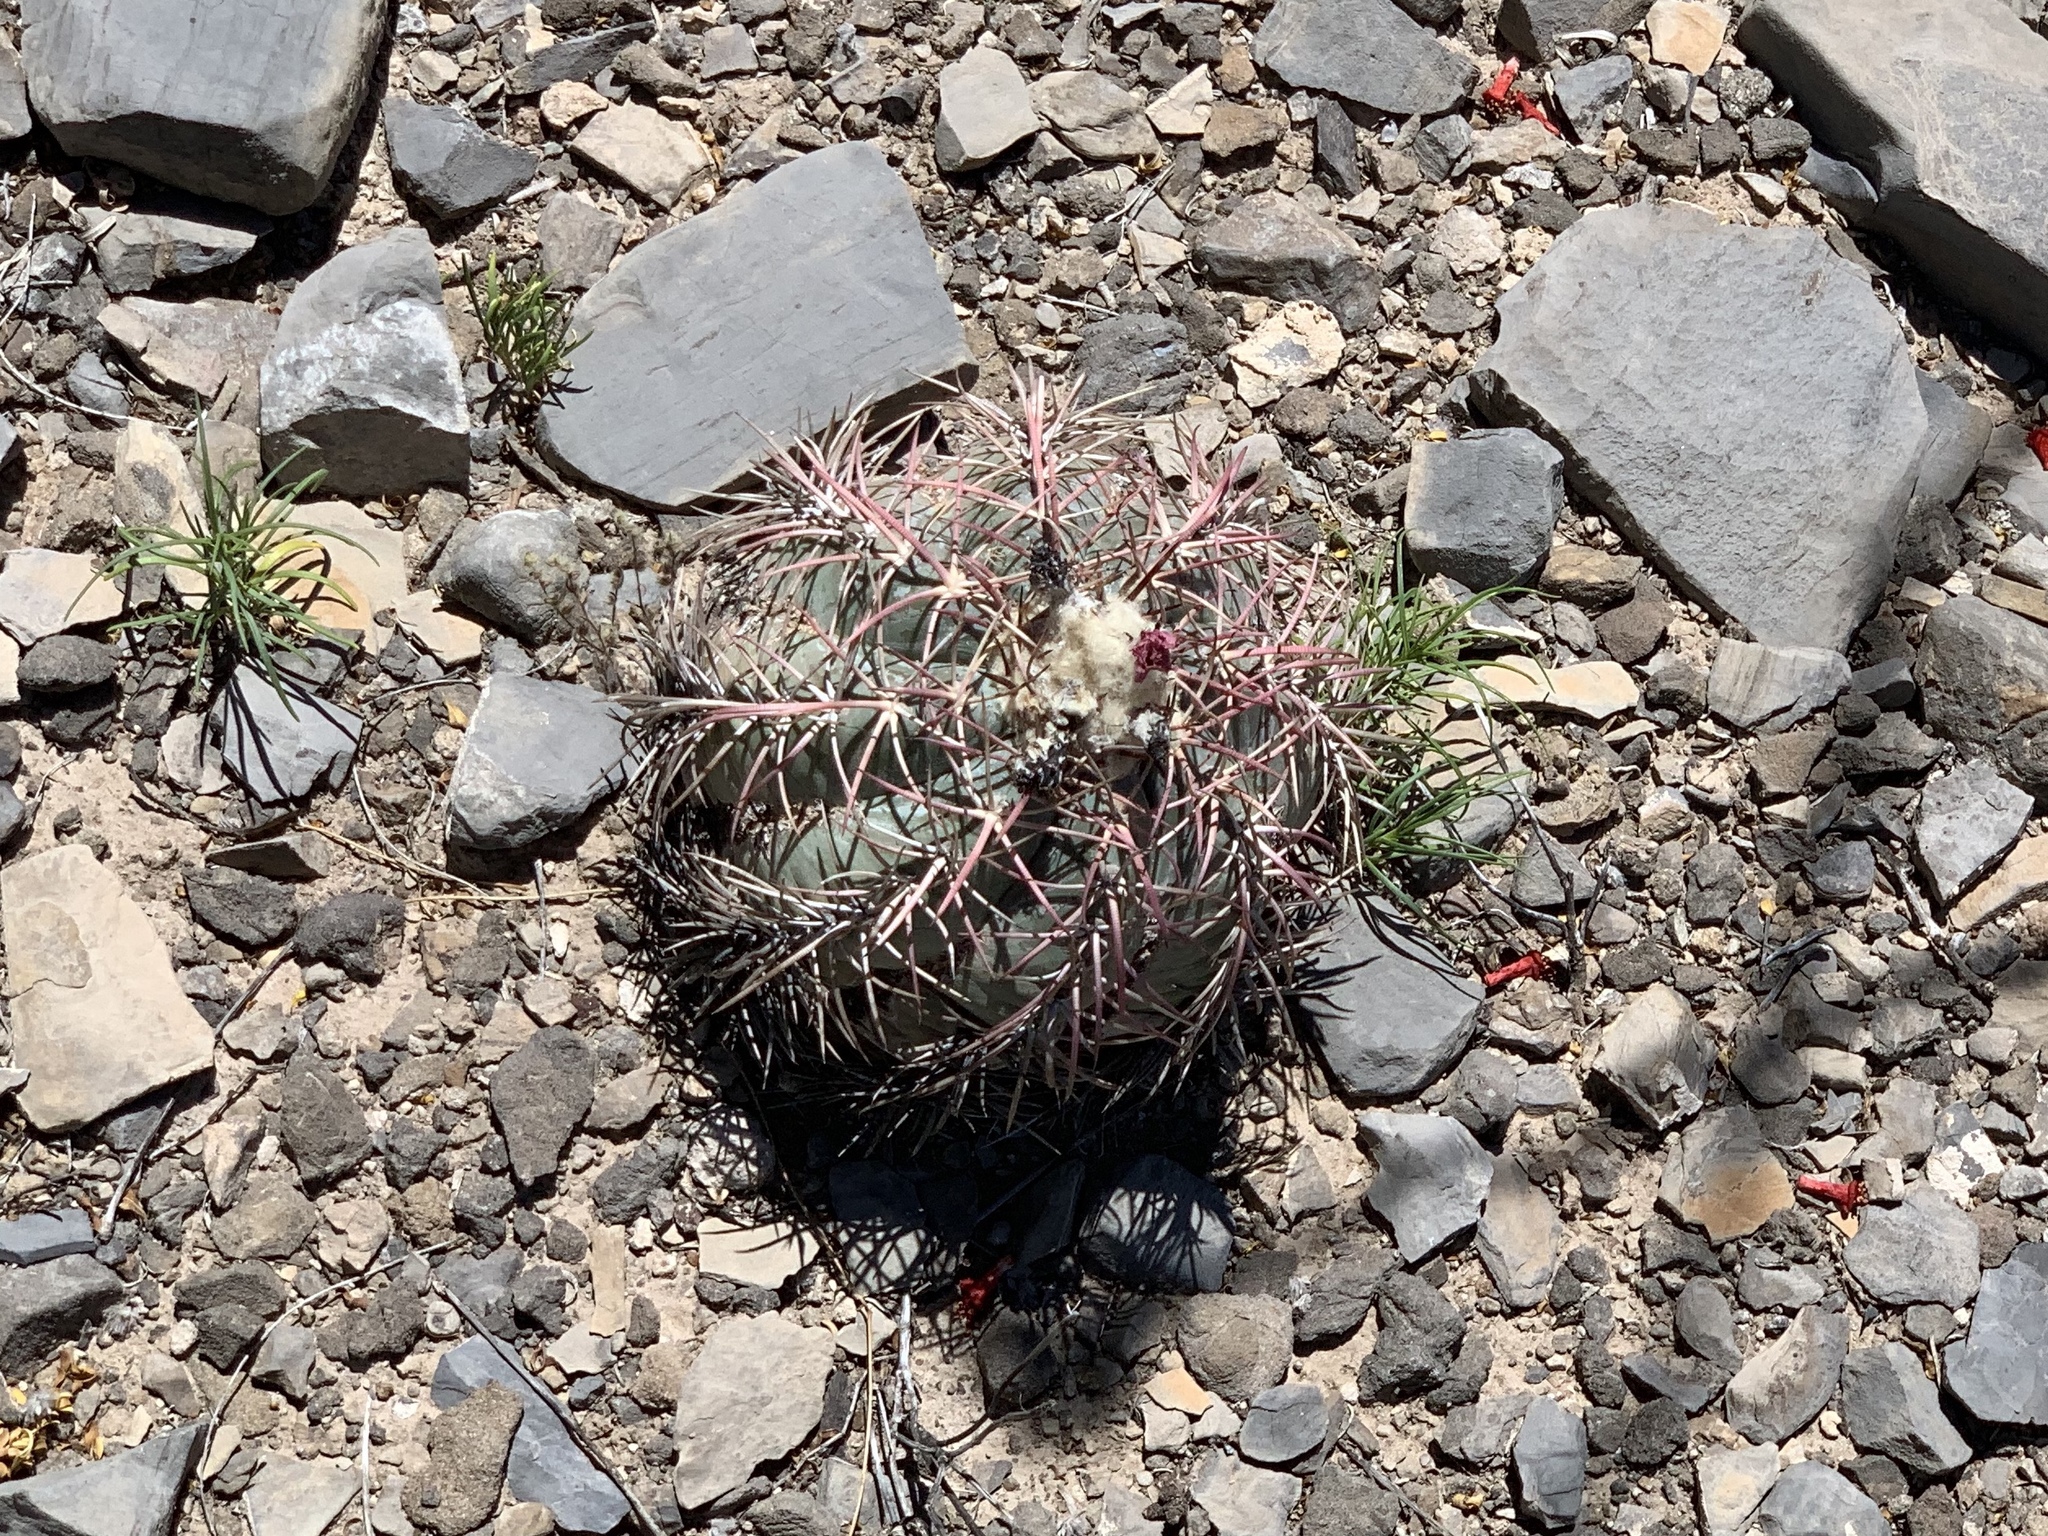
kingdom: Plantae
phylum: Tracheophyta
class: Magnoliopsida
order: Caryophyllales
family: Cactaceae
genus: Echinocactus
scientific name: Echinocactus horizonthalonius
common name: Devilshead
